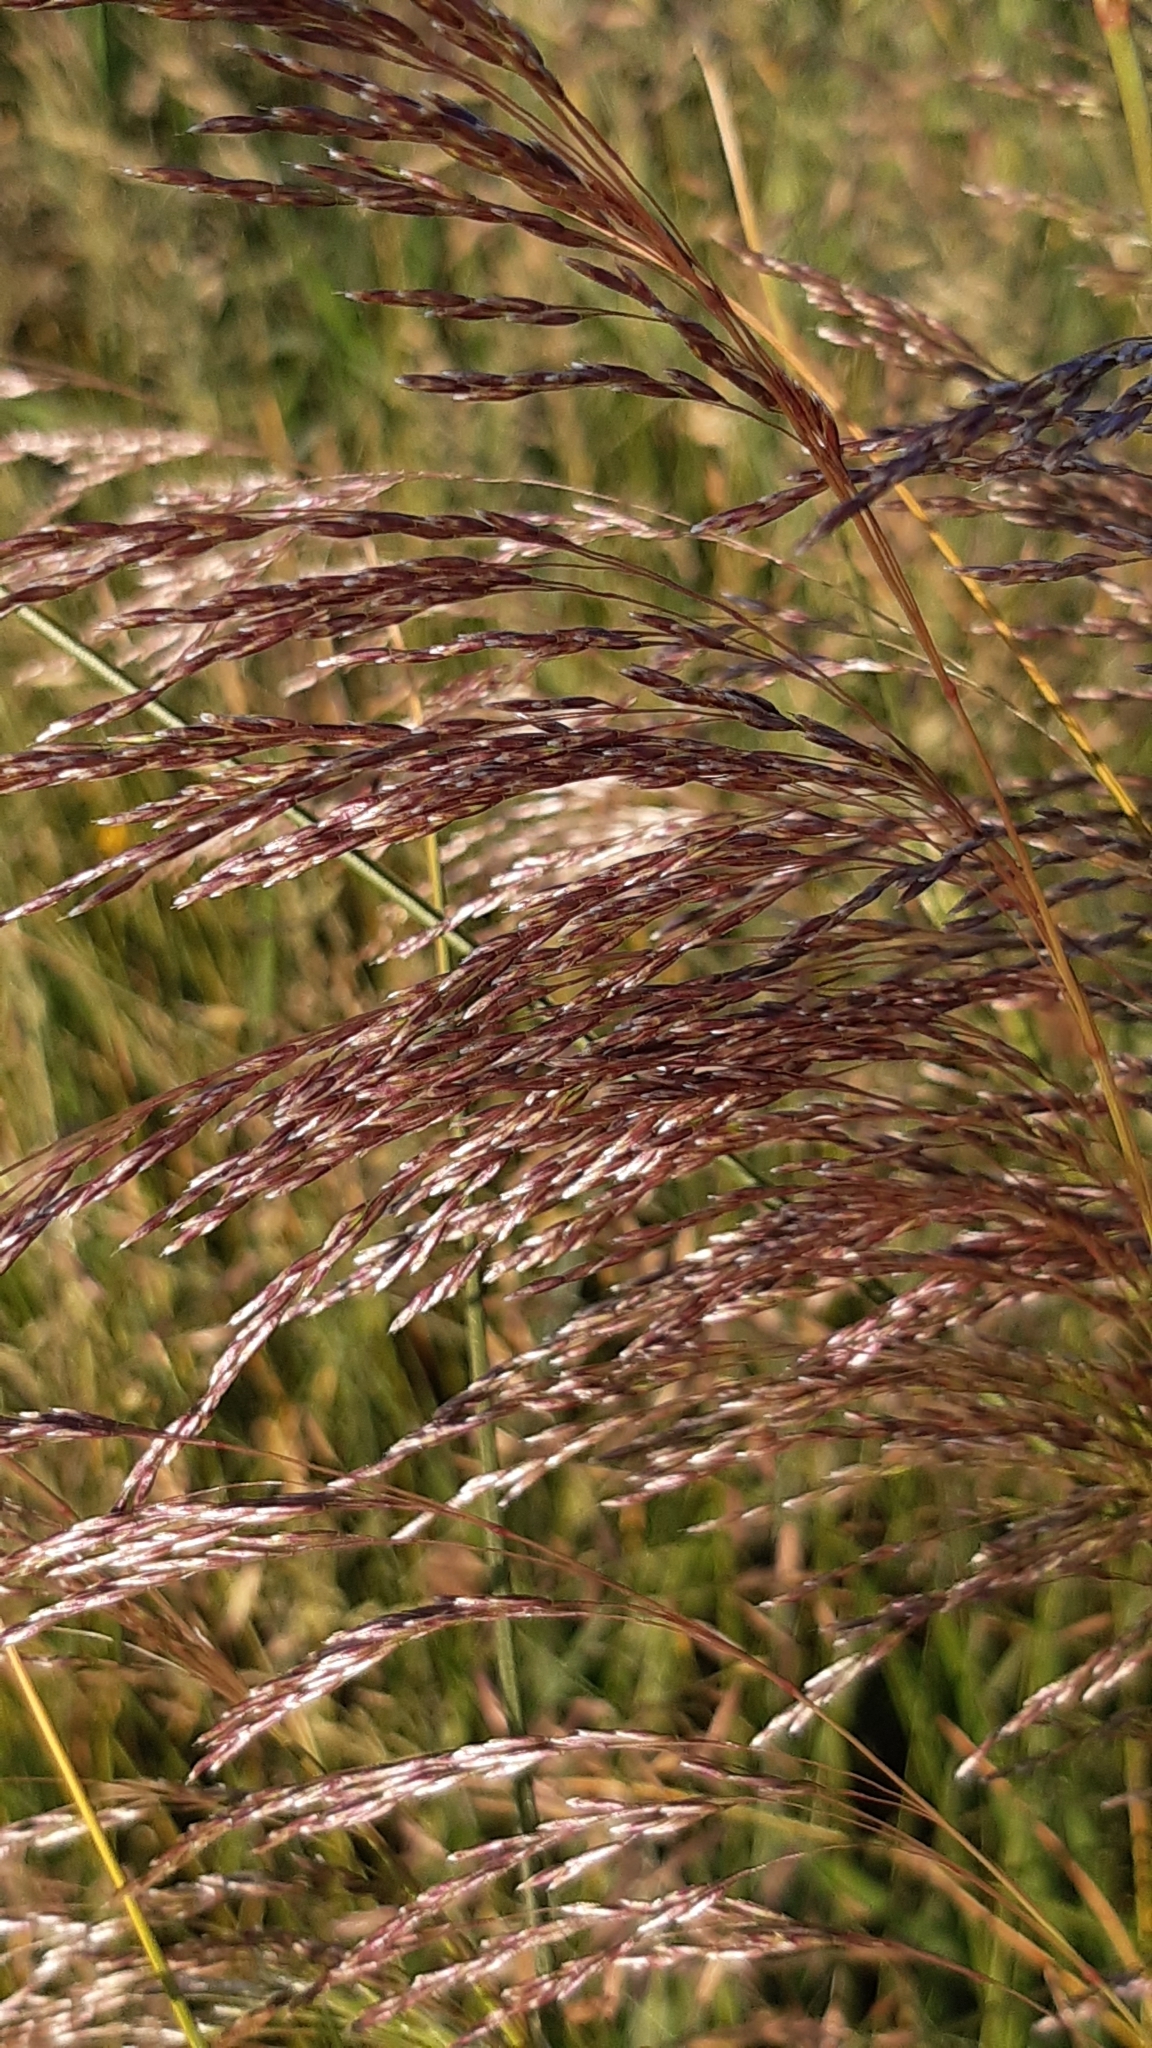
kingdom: Plantae
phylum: Tracheophyta
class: Liliopsida
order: Poales
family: Poaceae
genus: Deschampsia
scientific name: Deschampsia cespitosa
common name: Tufted hair-grass
